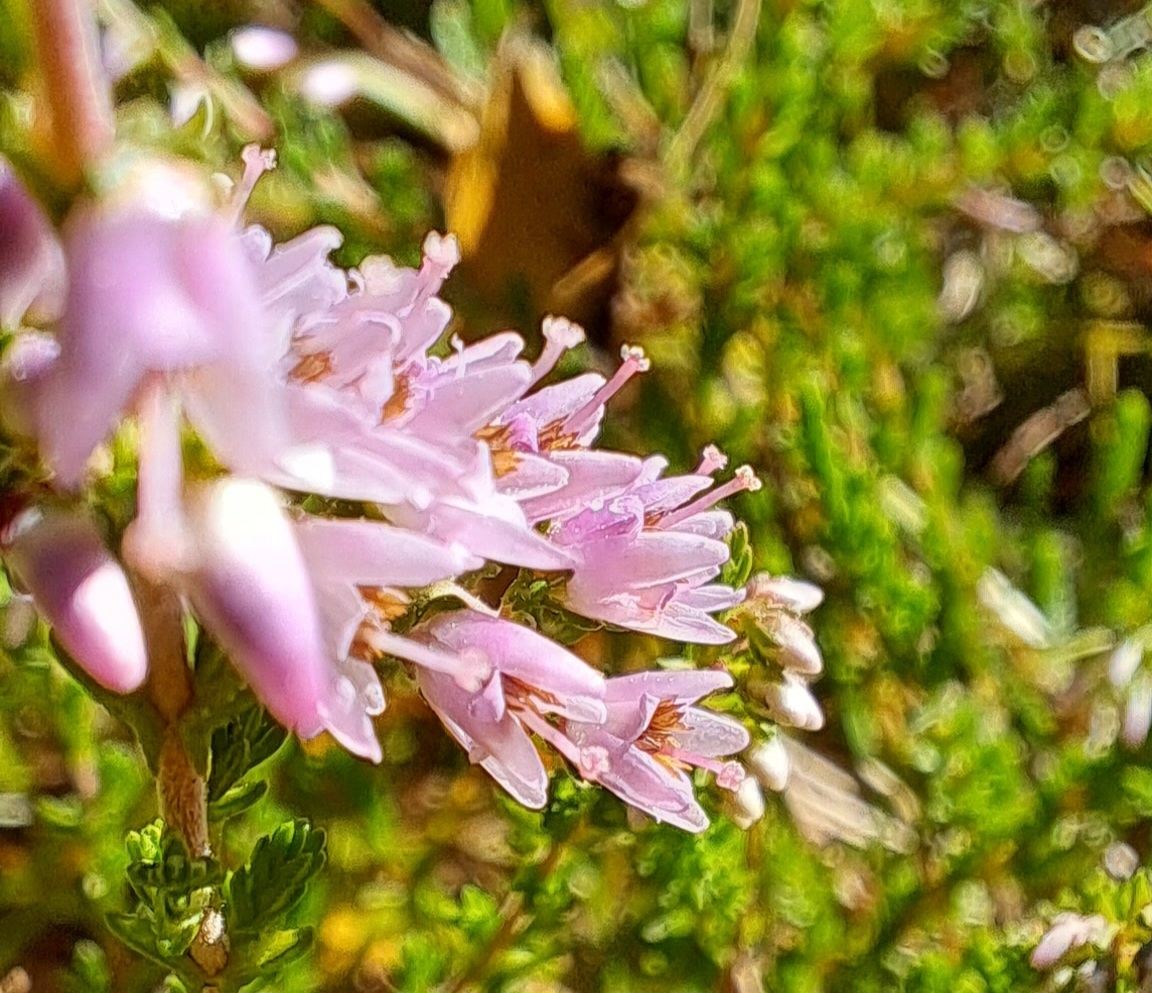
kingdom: Plantae
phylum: Tracheophyta
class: Magnoliopsida
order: Ericales
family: Ericaceae
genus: Calluna
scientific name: Calluna vulgaris
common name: Heather
